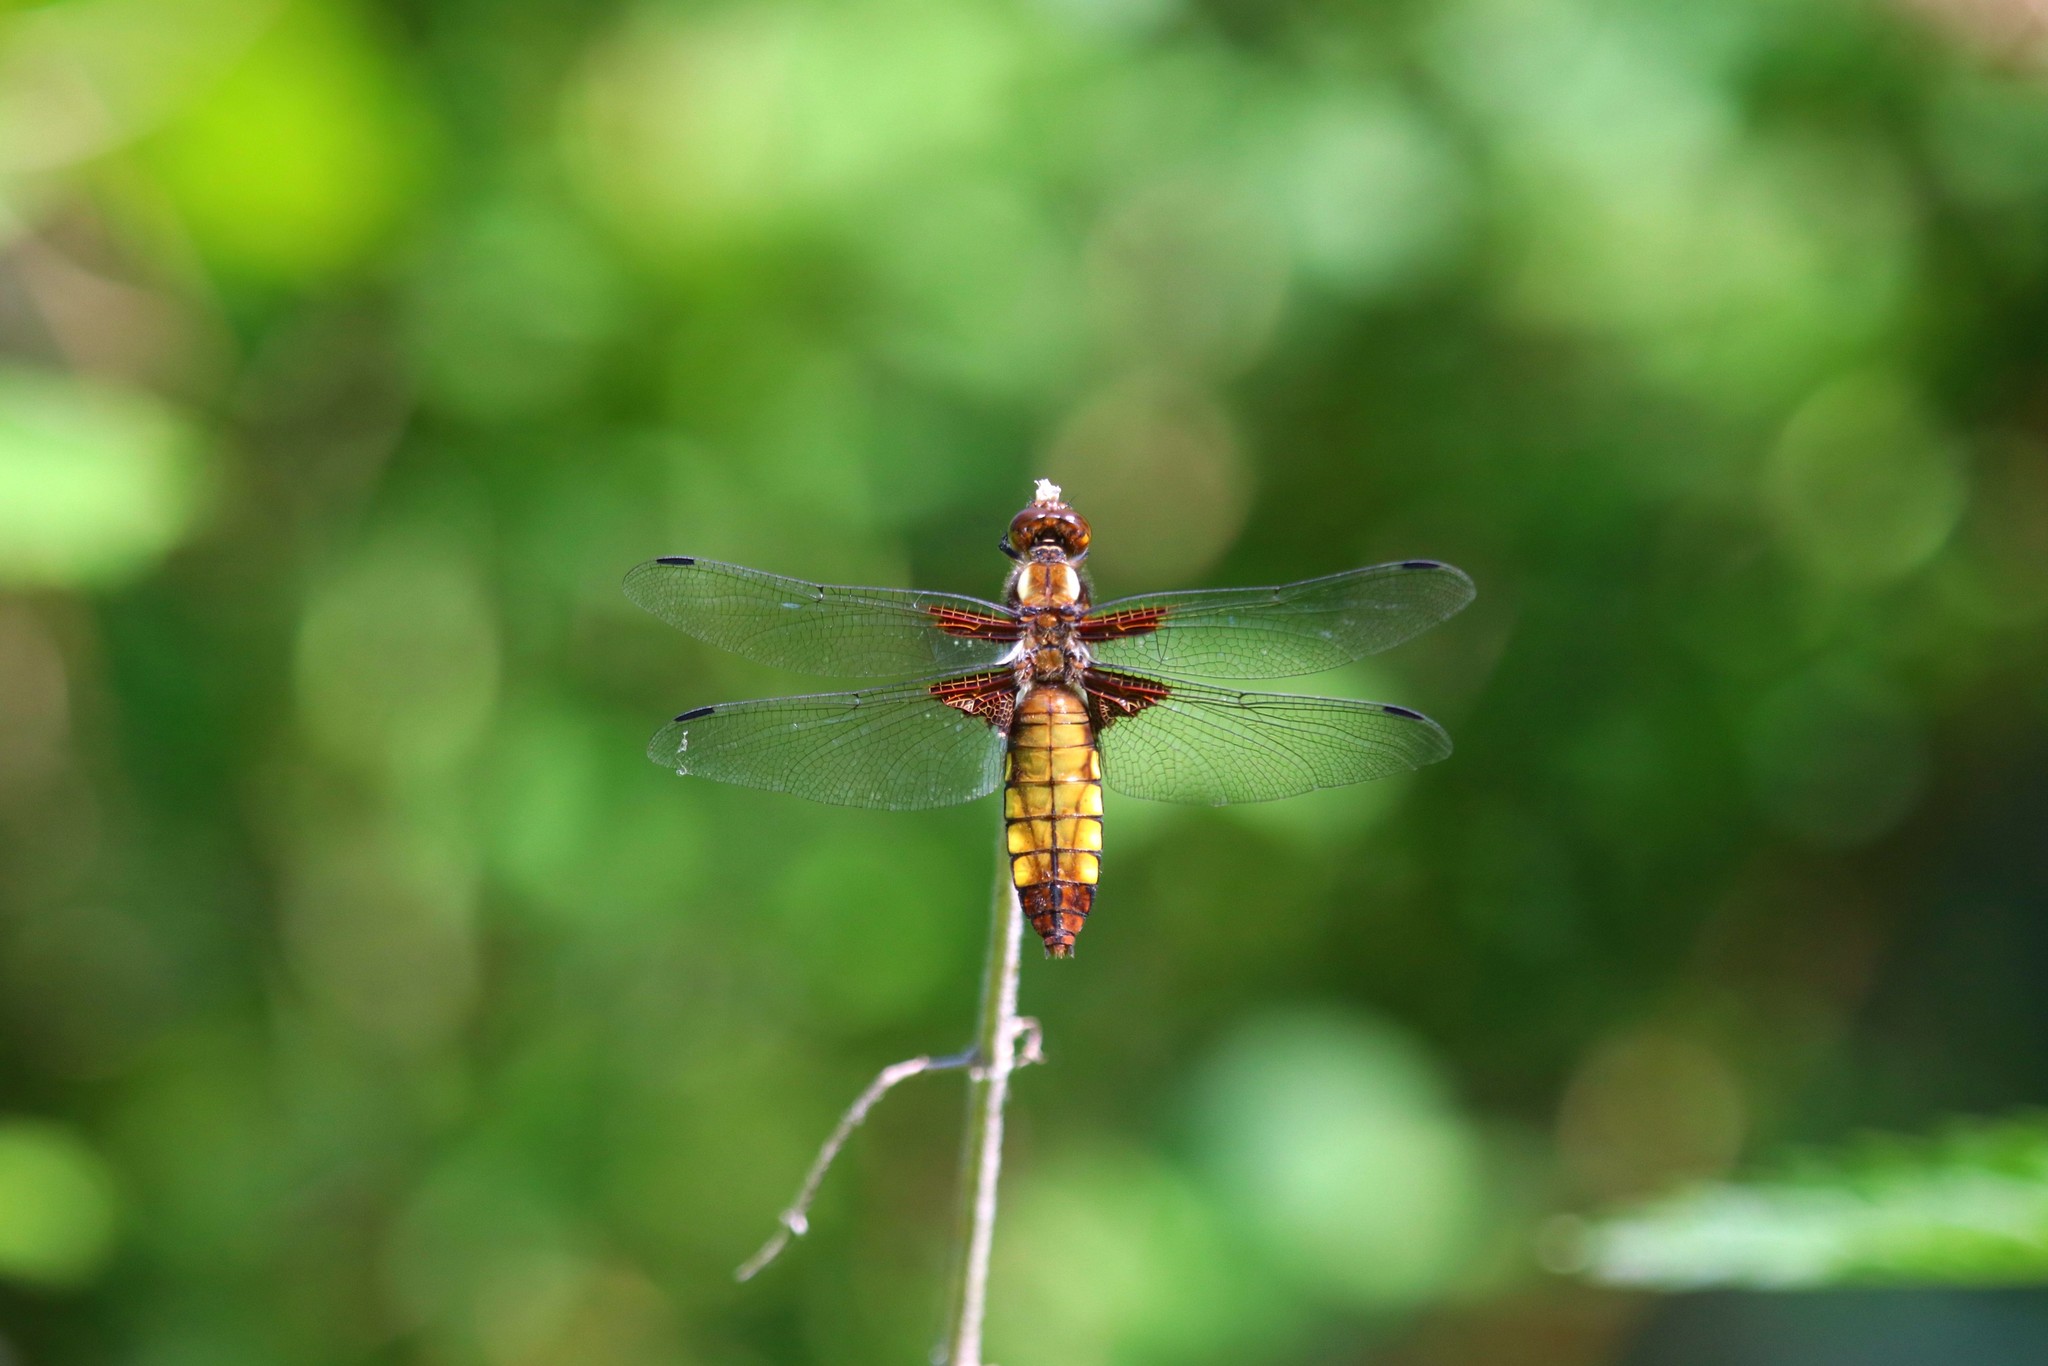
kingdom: Animalia
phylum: Arthropoda
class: Insecta
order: Odonata
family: Libellulidae
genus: Libellula
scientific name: Libellula depressa
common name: Broad-bodied chaser
